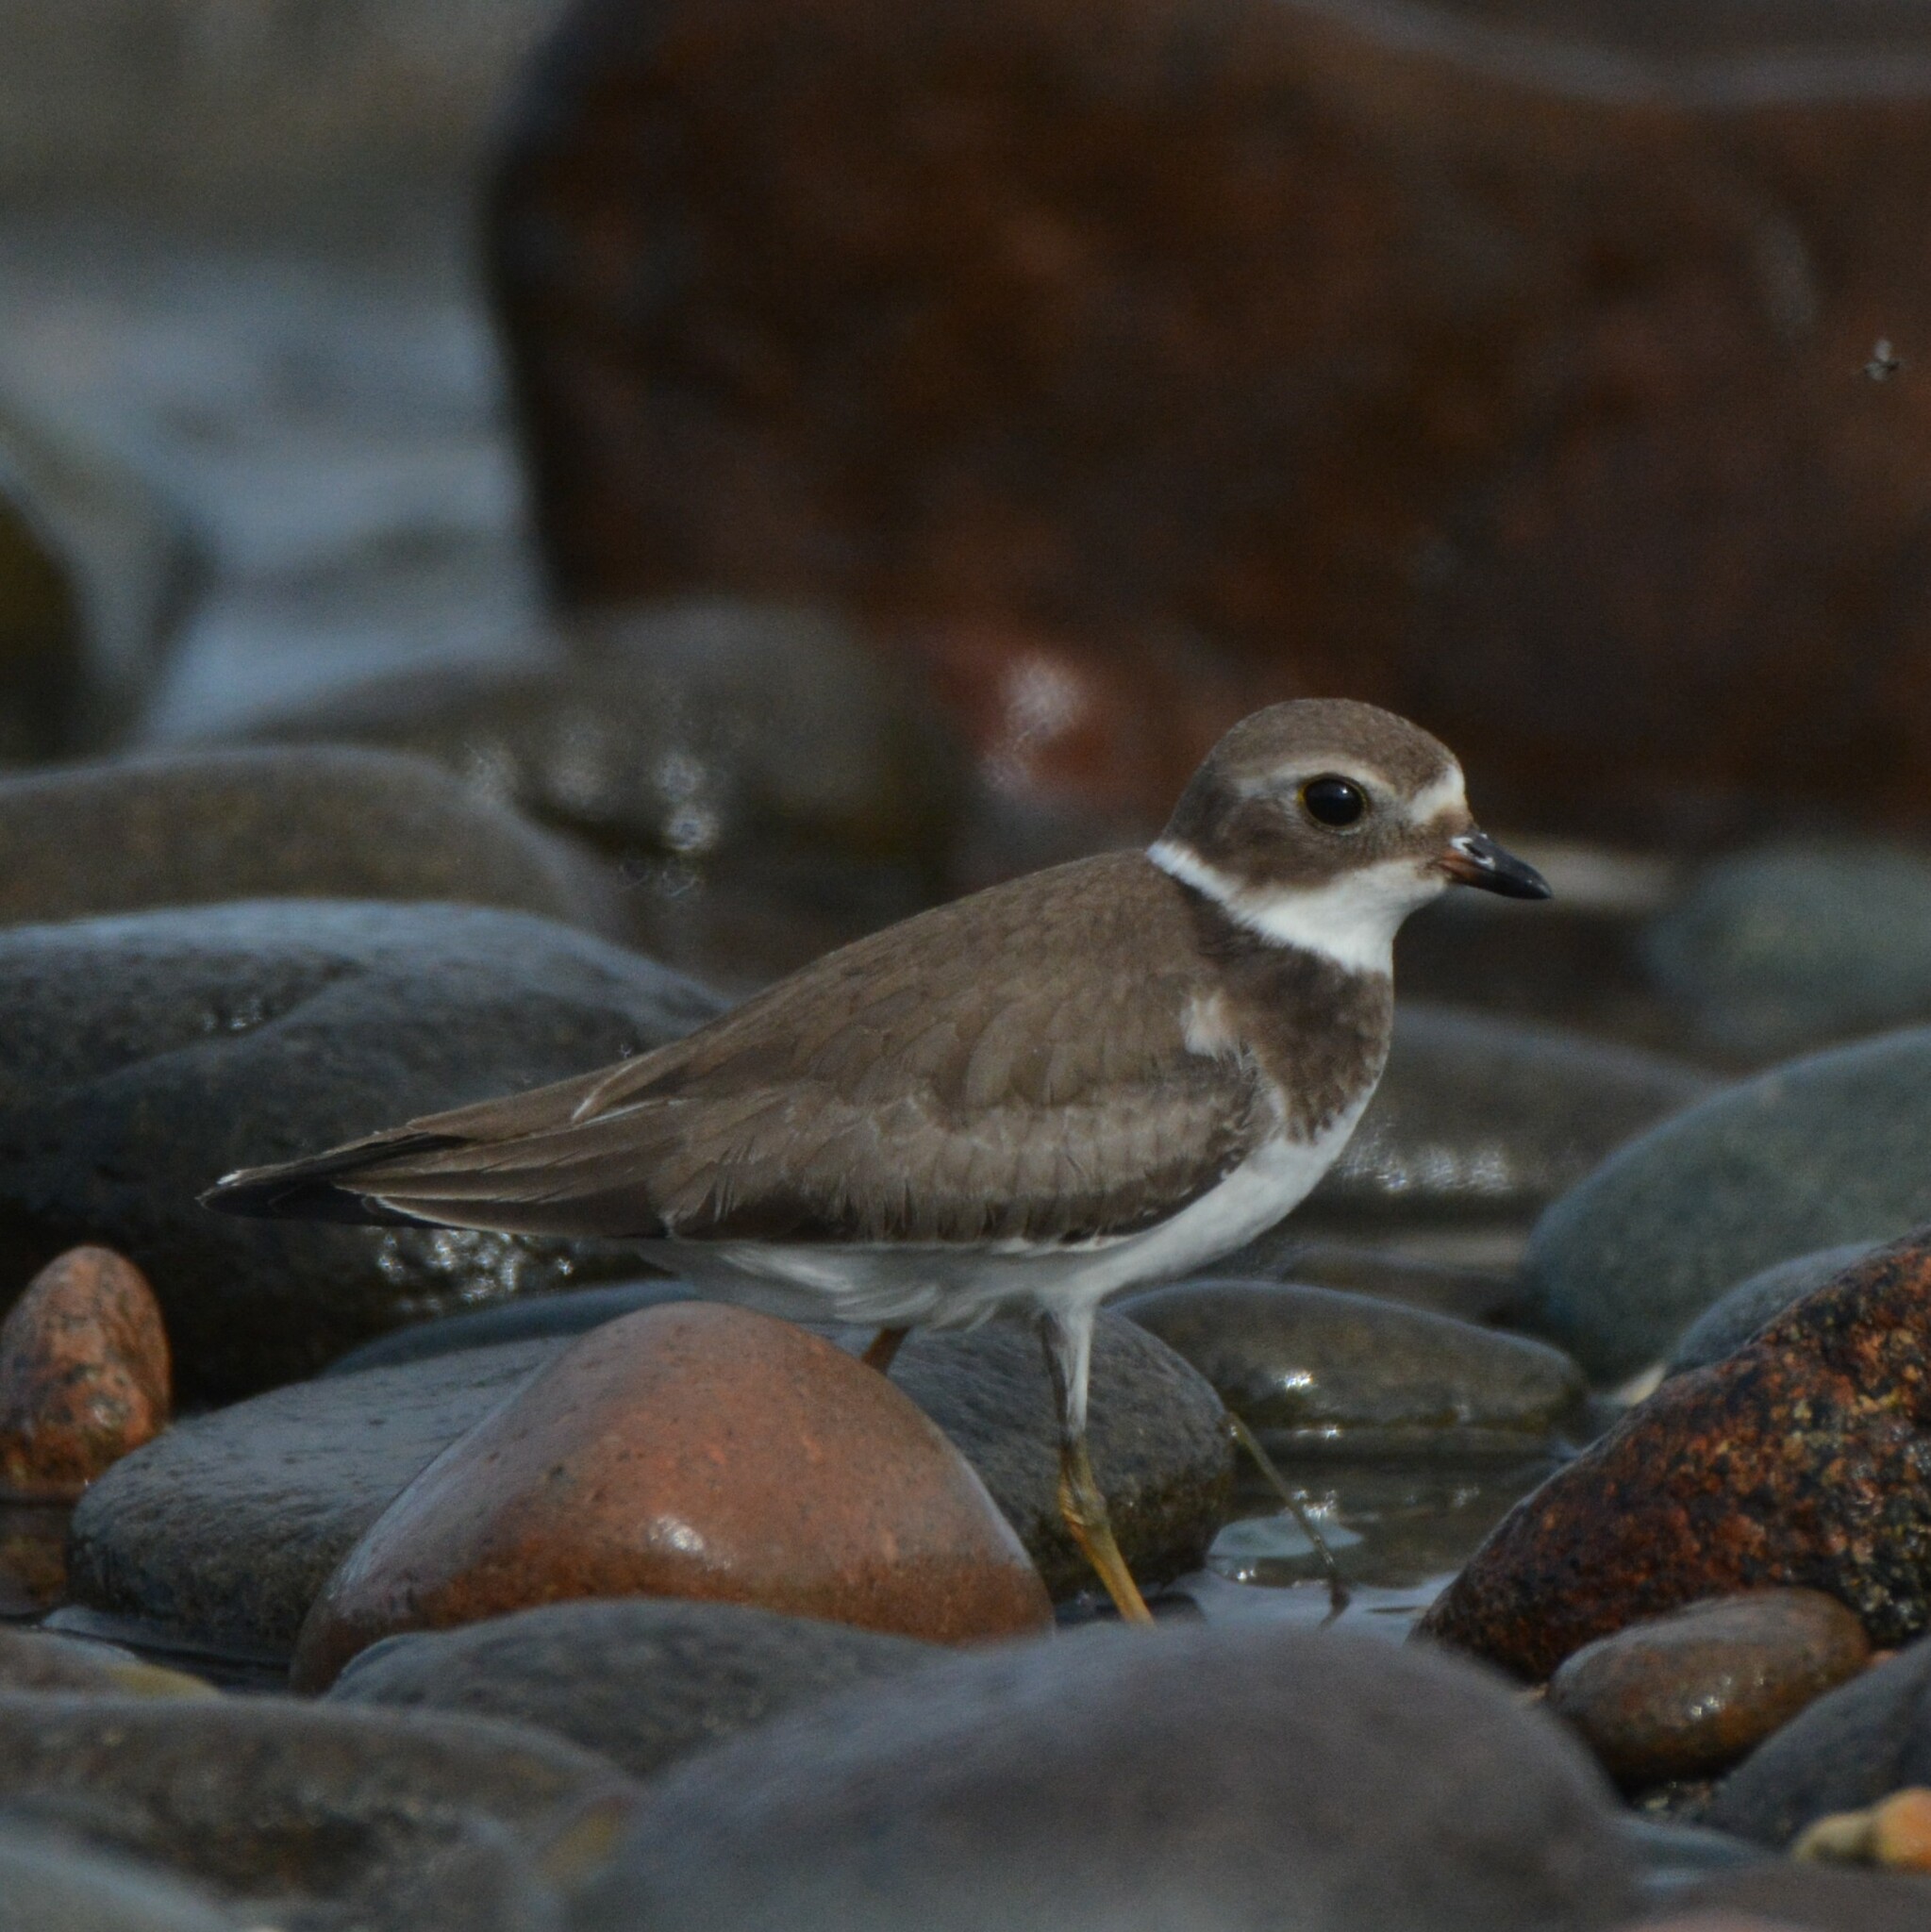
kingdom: Animalia
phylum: Chordata
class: Aves
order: Charadriiformes
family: Charadriidae
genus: Charadrius
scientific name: Charadrius semipalmatus
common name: Semipalmated plover
